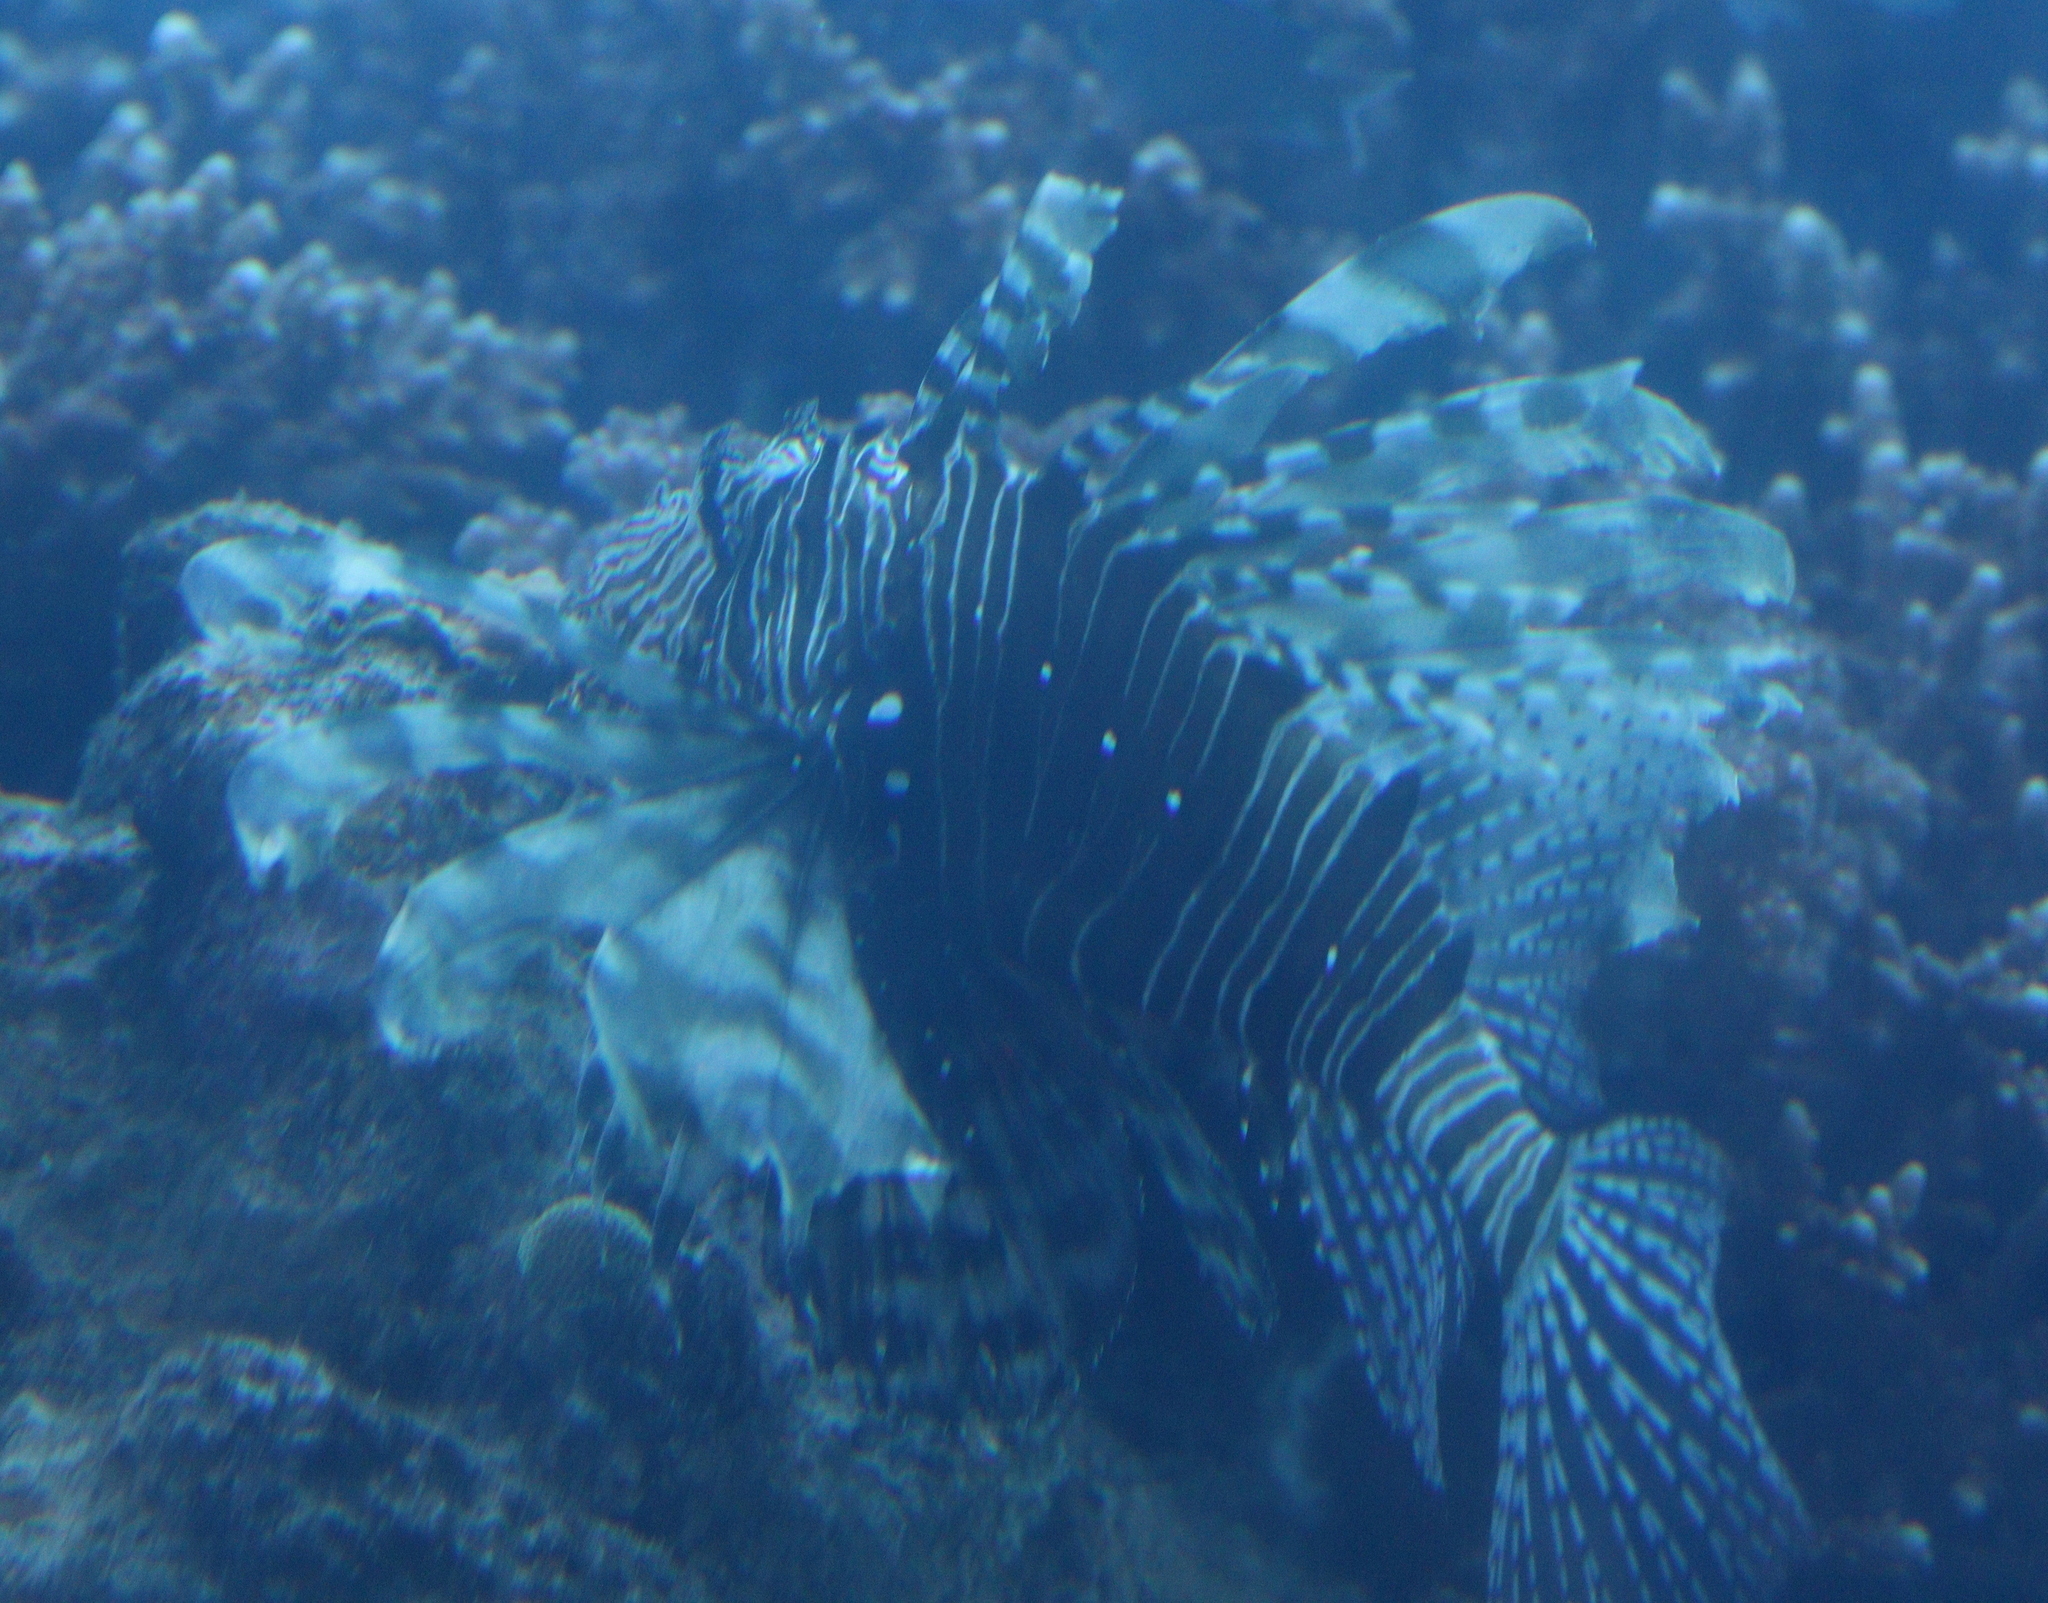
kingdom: Animalia
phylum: Chordata
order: Scorpaeniformes
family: Scorpaenidae
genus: Pterois
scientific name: Pterois miles
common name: Devil firefish
